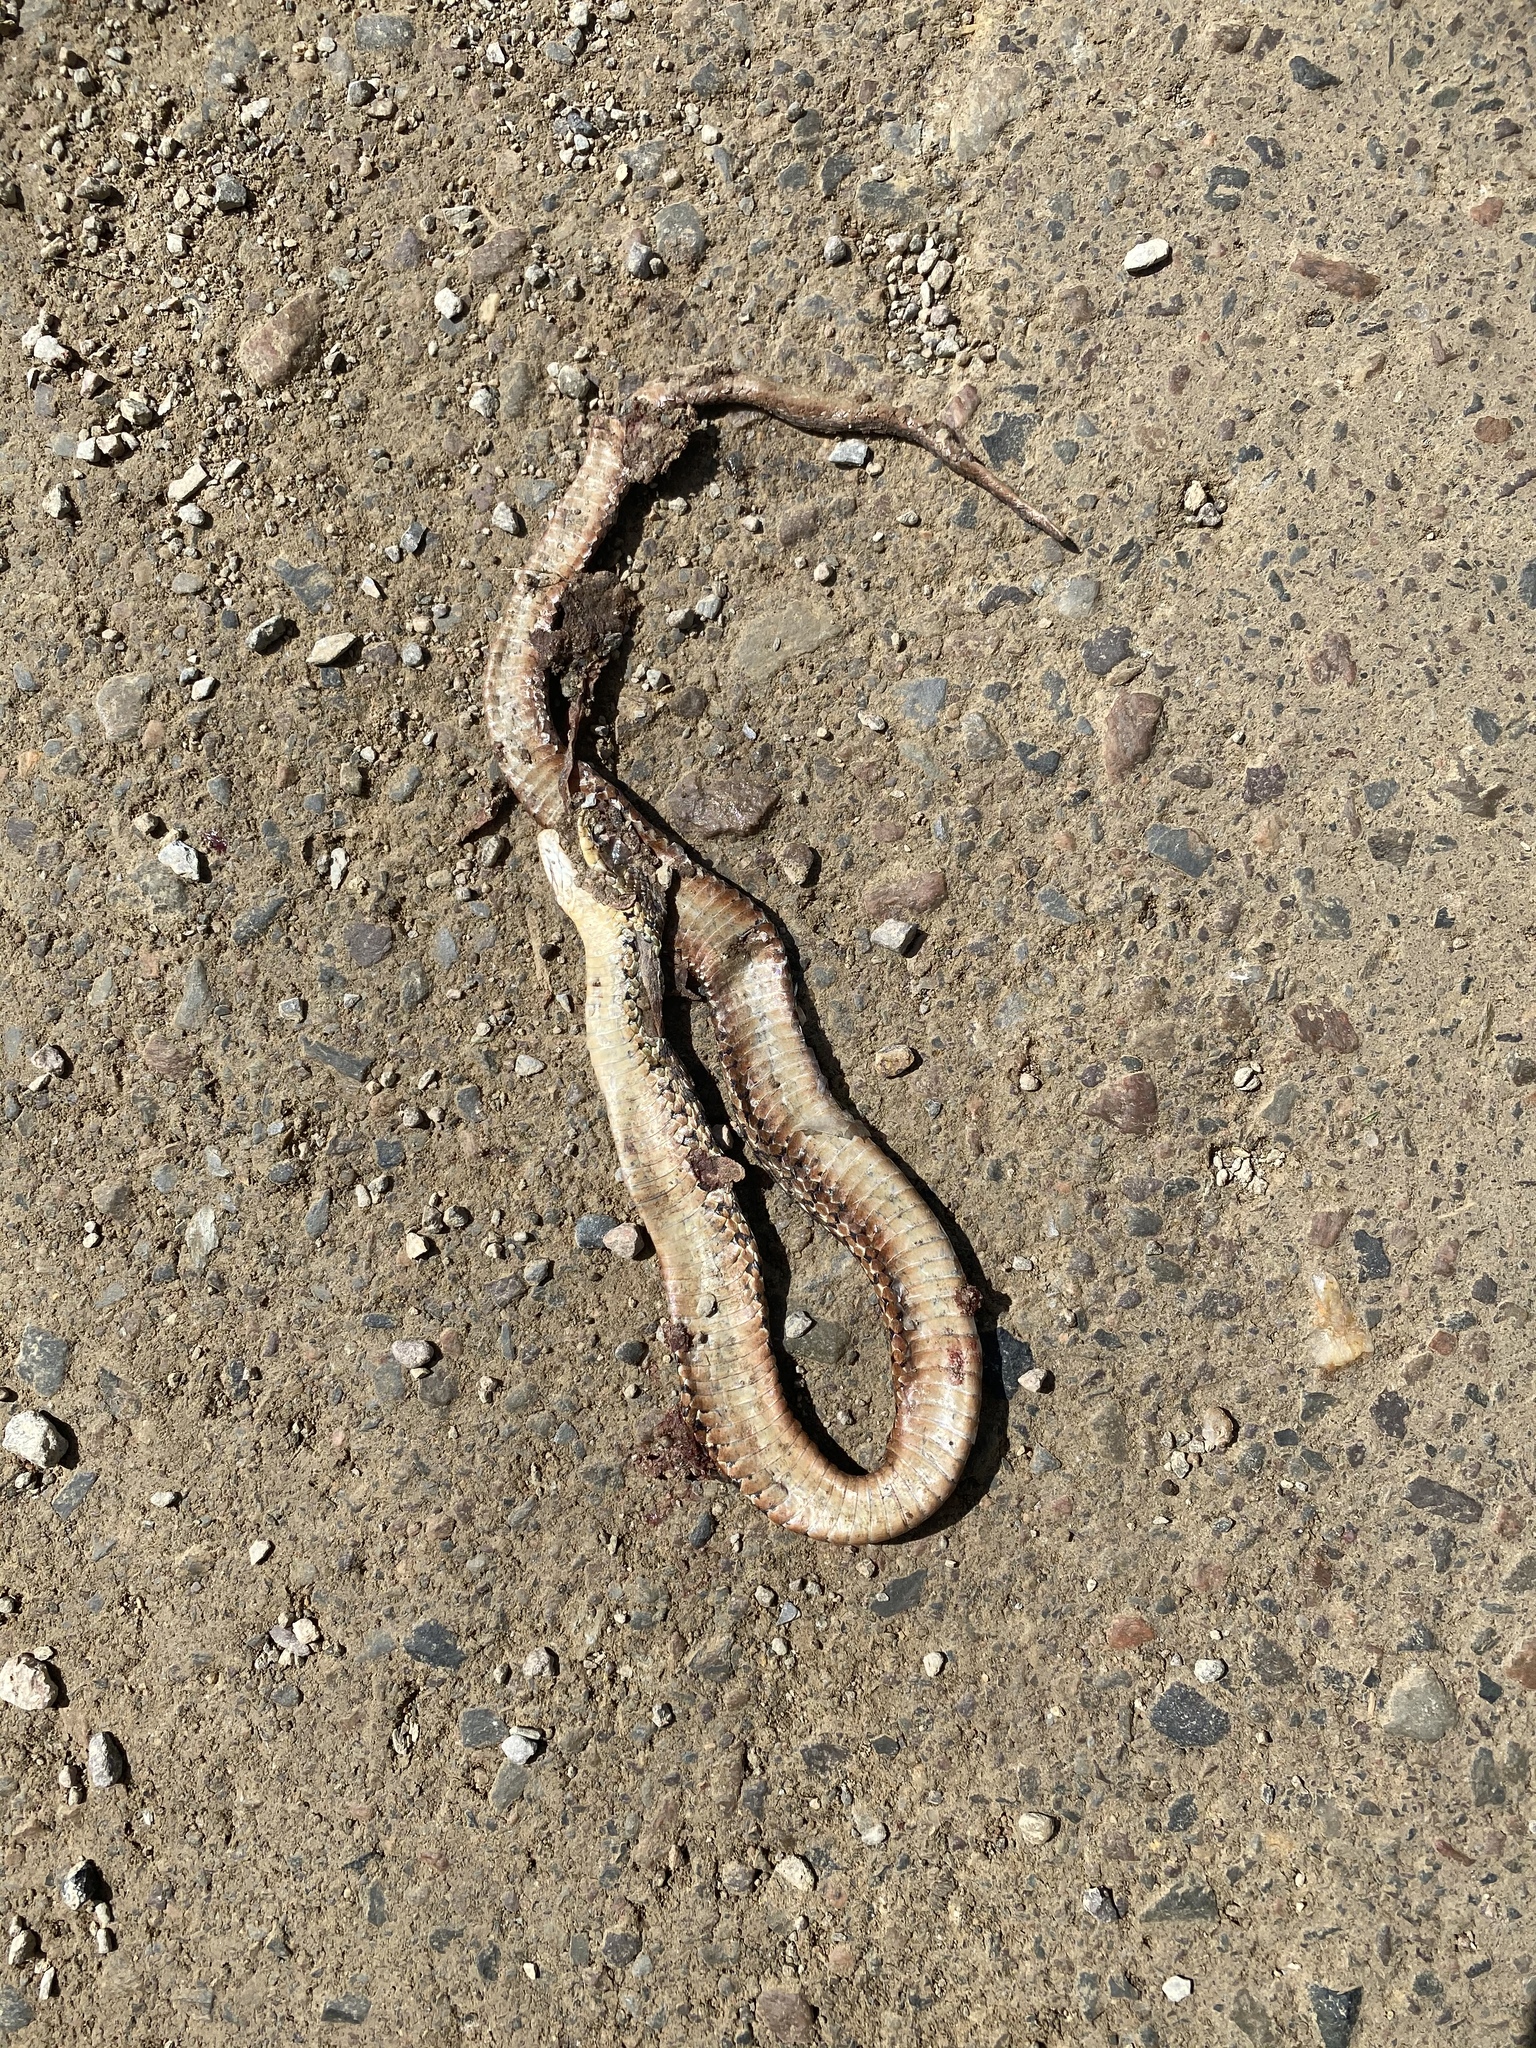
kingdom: Animalia
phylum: Chordata
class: Squamata
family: Colubridae
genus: Thamnophis
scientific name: Thamnophis sirtalis
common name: Common garter snake
